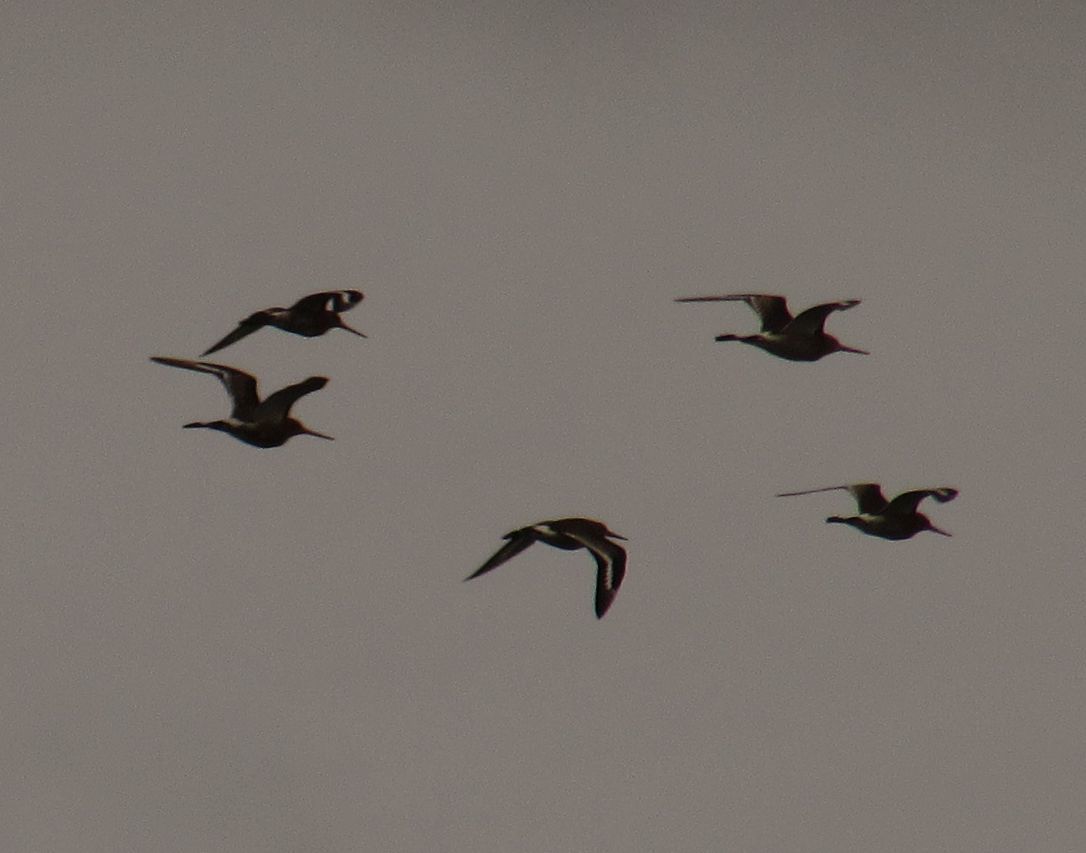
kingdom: Animalia
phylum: Chordata
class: Aves
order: Charadriiformes
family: Scolopacidae
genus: Limosa
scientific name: Limosa limosa
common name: Black-tailed godwit
